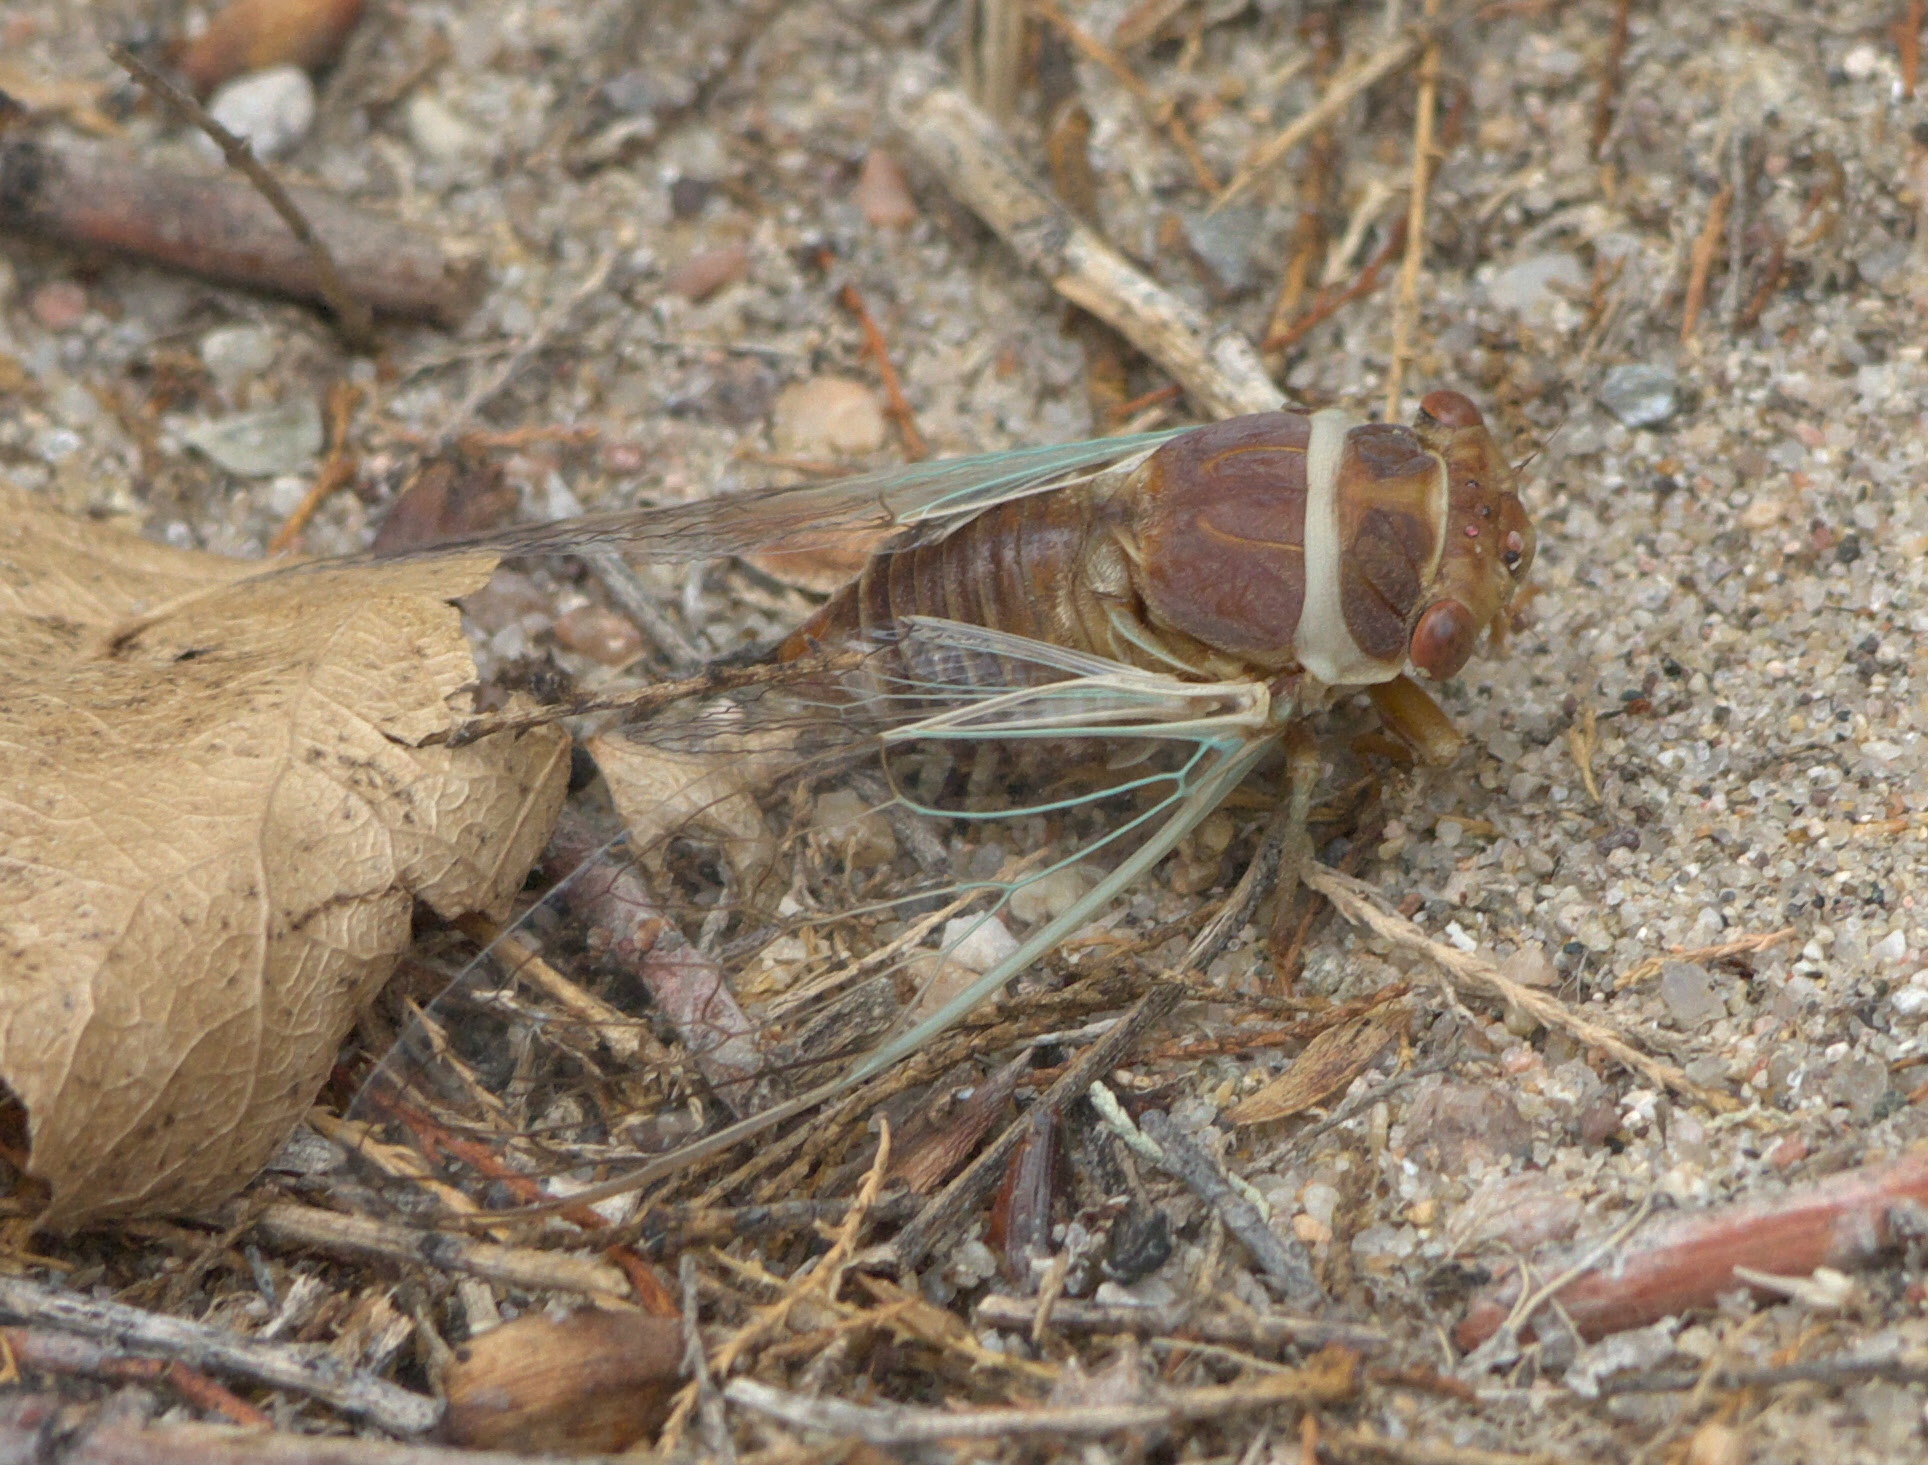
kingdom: Animalia
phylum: Arthropoda
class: Insecta
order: Hemiptera
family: Cicadidae
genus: Diceroprocta
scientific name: Diceroprocta apache
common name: Desert cicada
